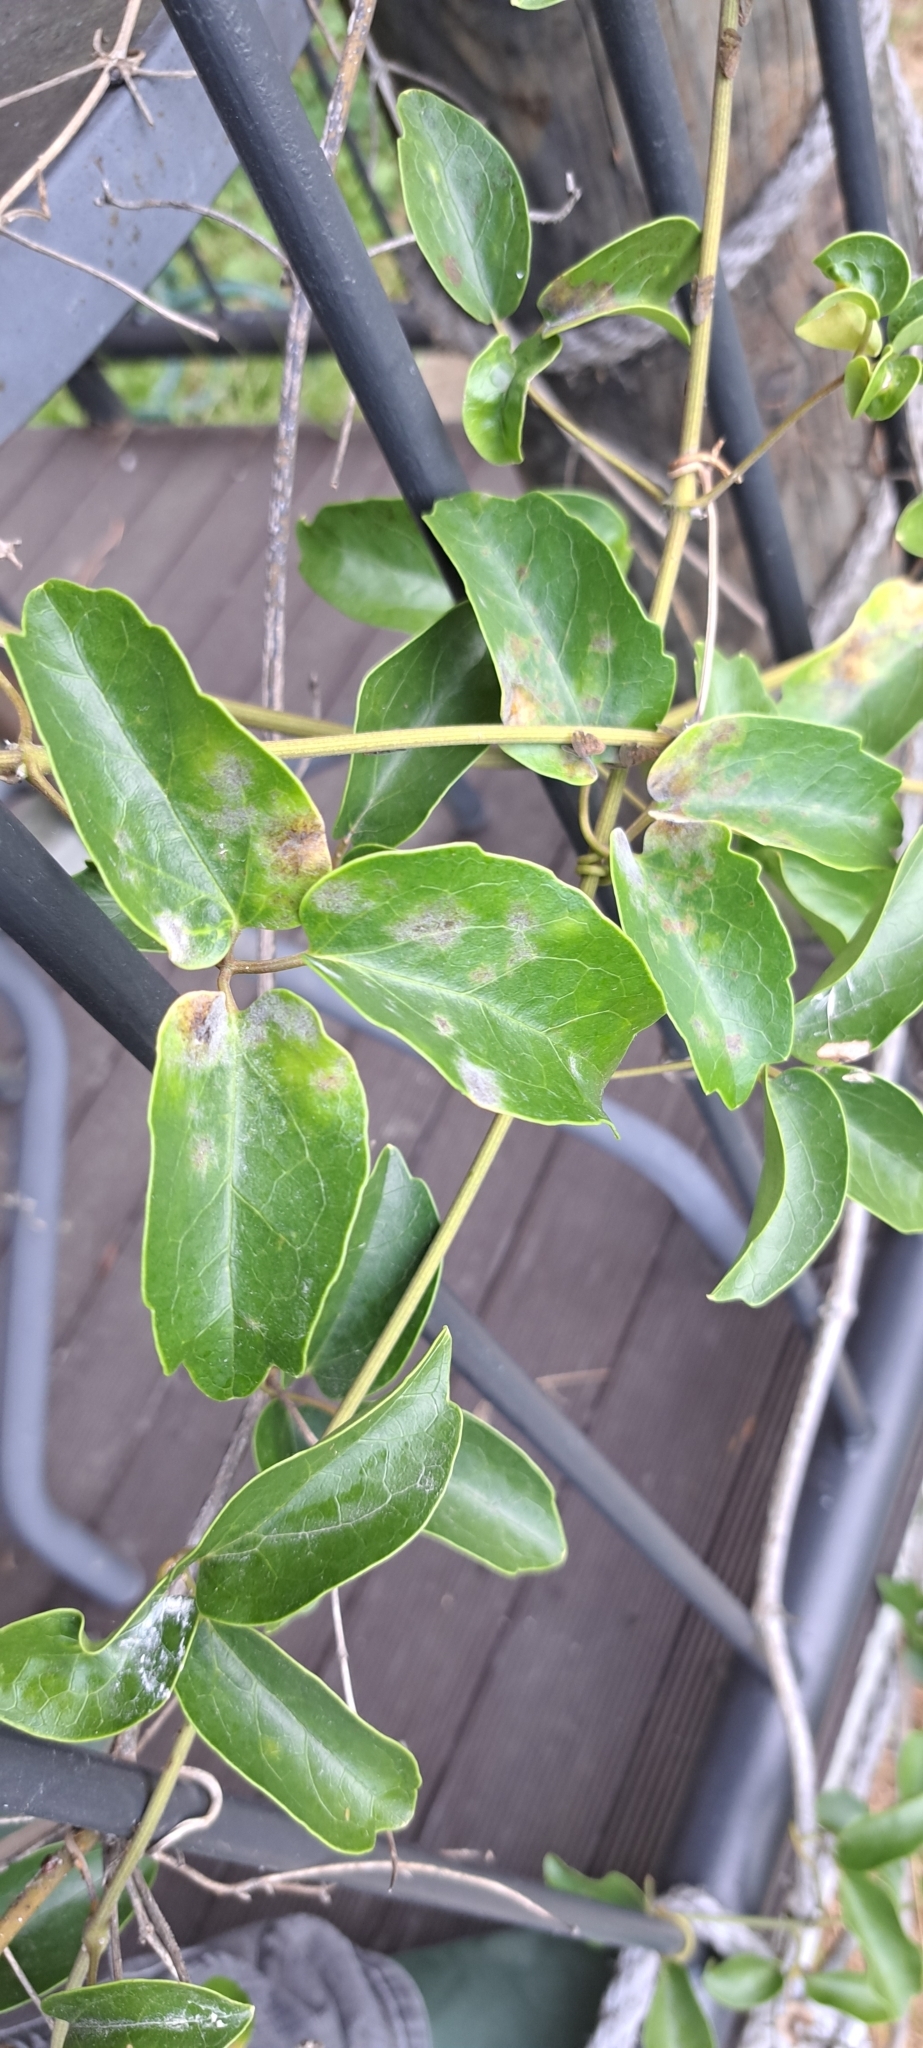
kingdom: Fungi
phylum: Ascomycota
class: Leotiomycetes
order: Helotiales
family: Erysiphaceae
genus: Erysiphe
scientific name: Erysiphe aquilegiae
